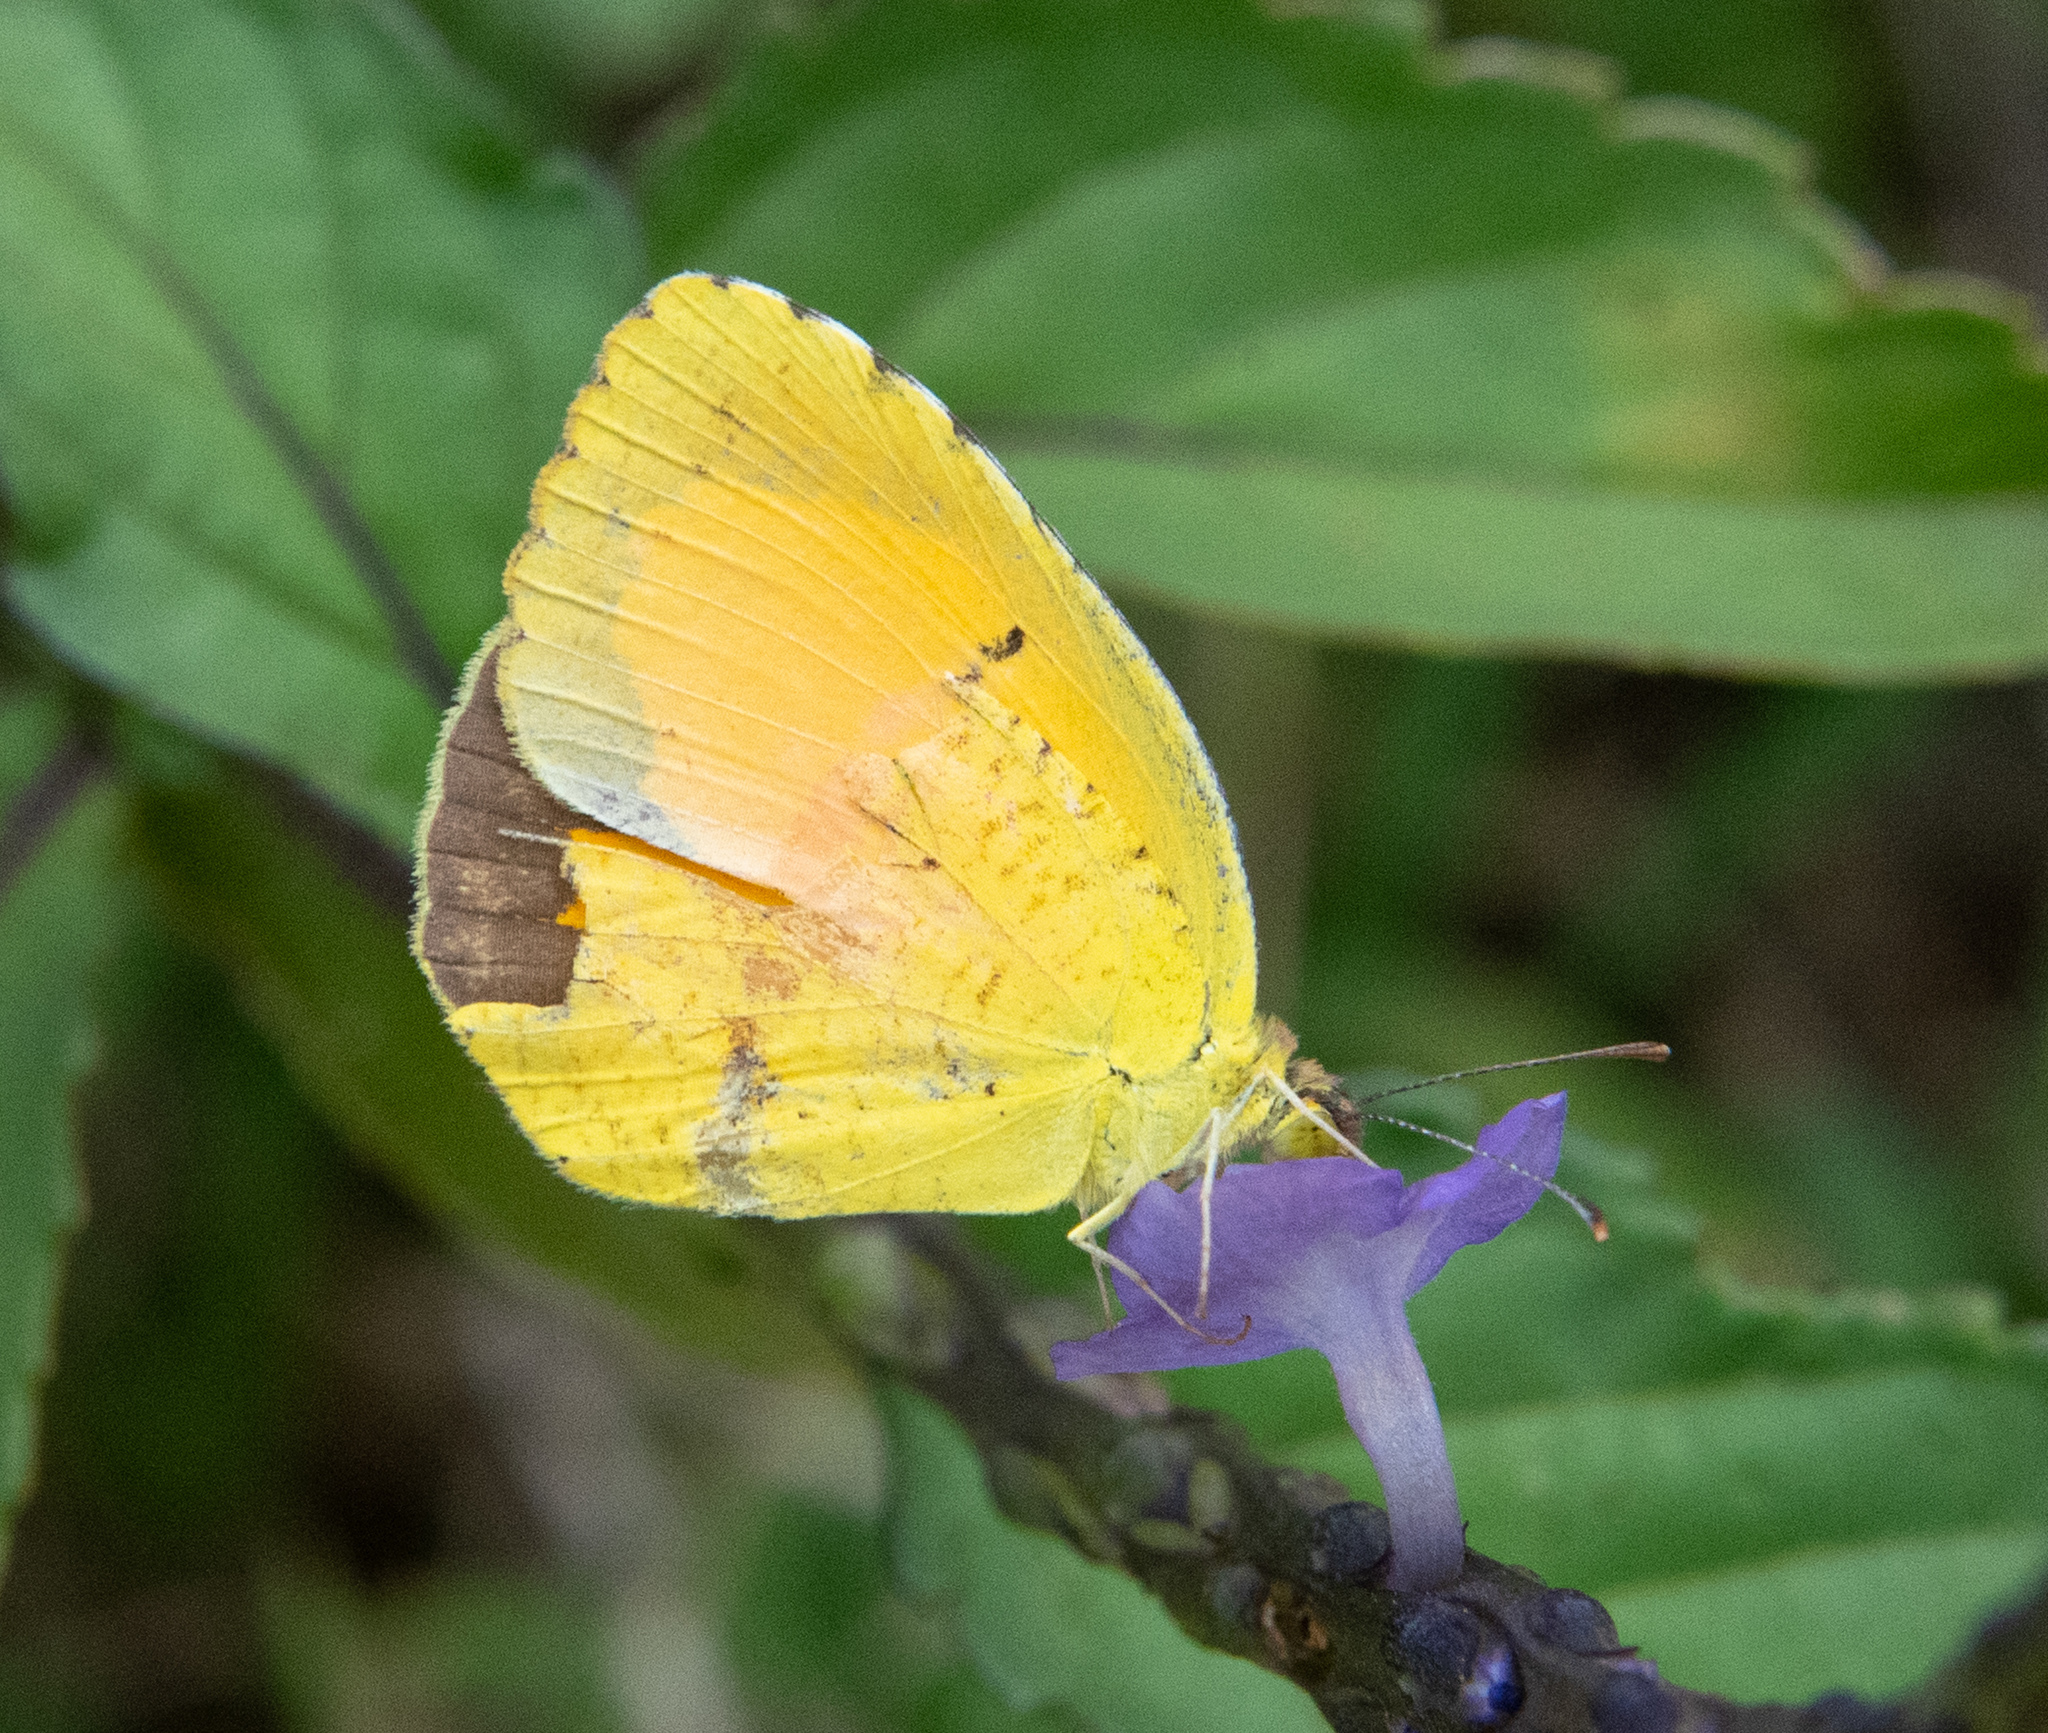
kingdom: Animalia
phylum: Arthropoda
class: Insecta
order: Lepidoptera
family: Pieridae
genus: Abaeis
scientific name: Abaeis nicippe
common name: Sleepy orange
